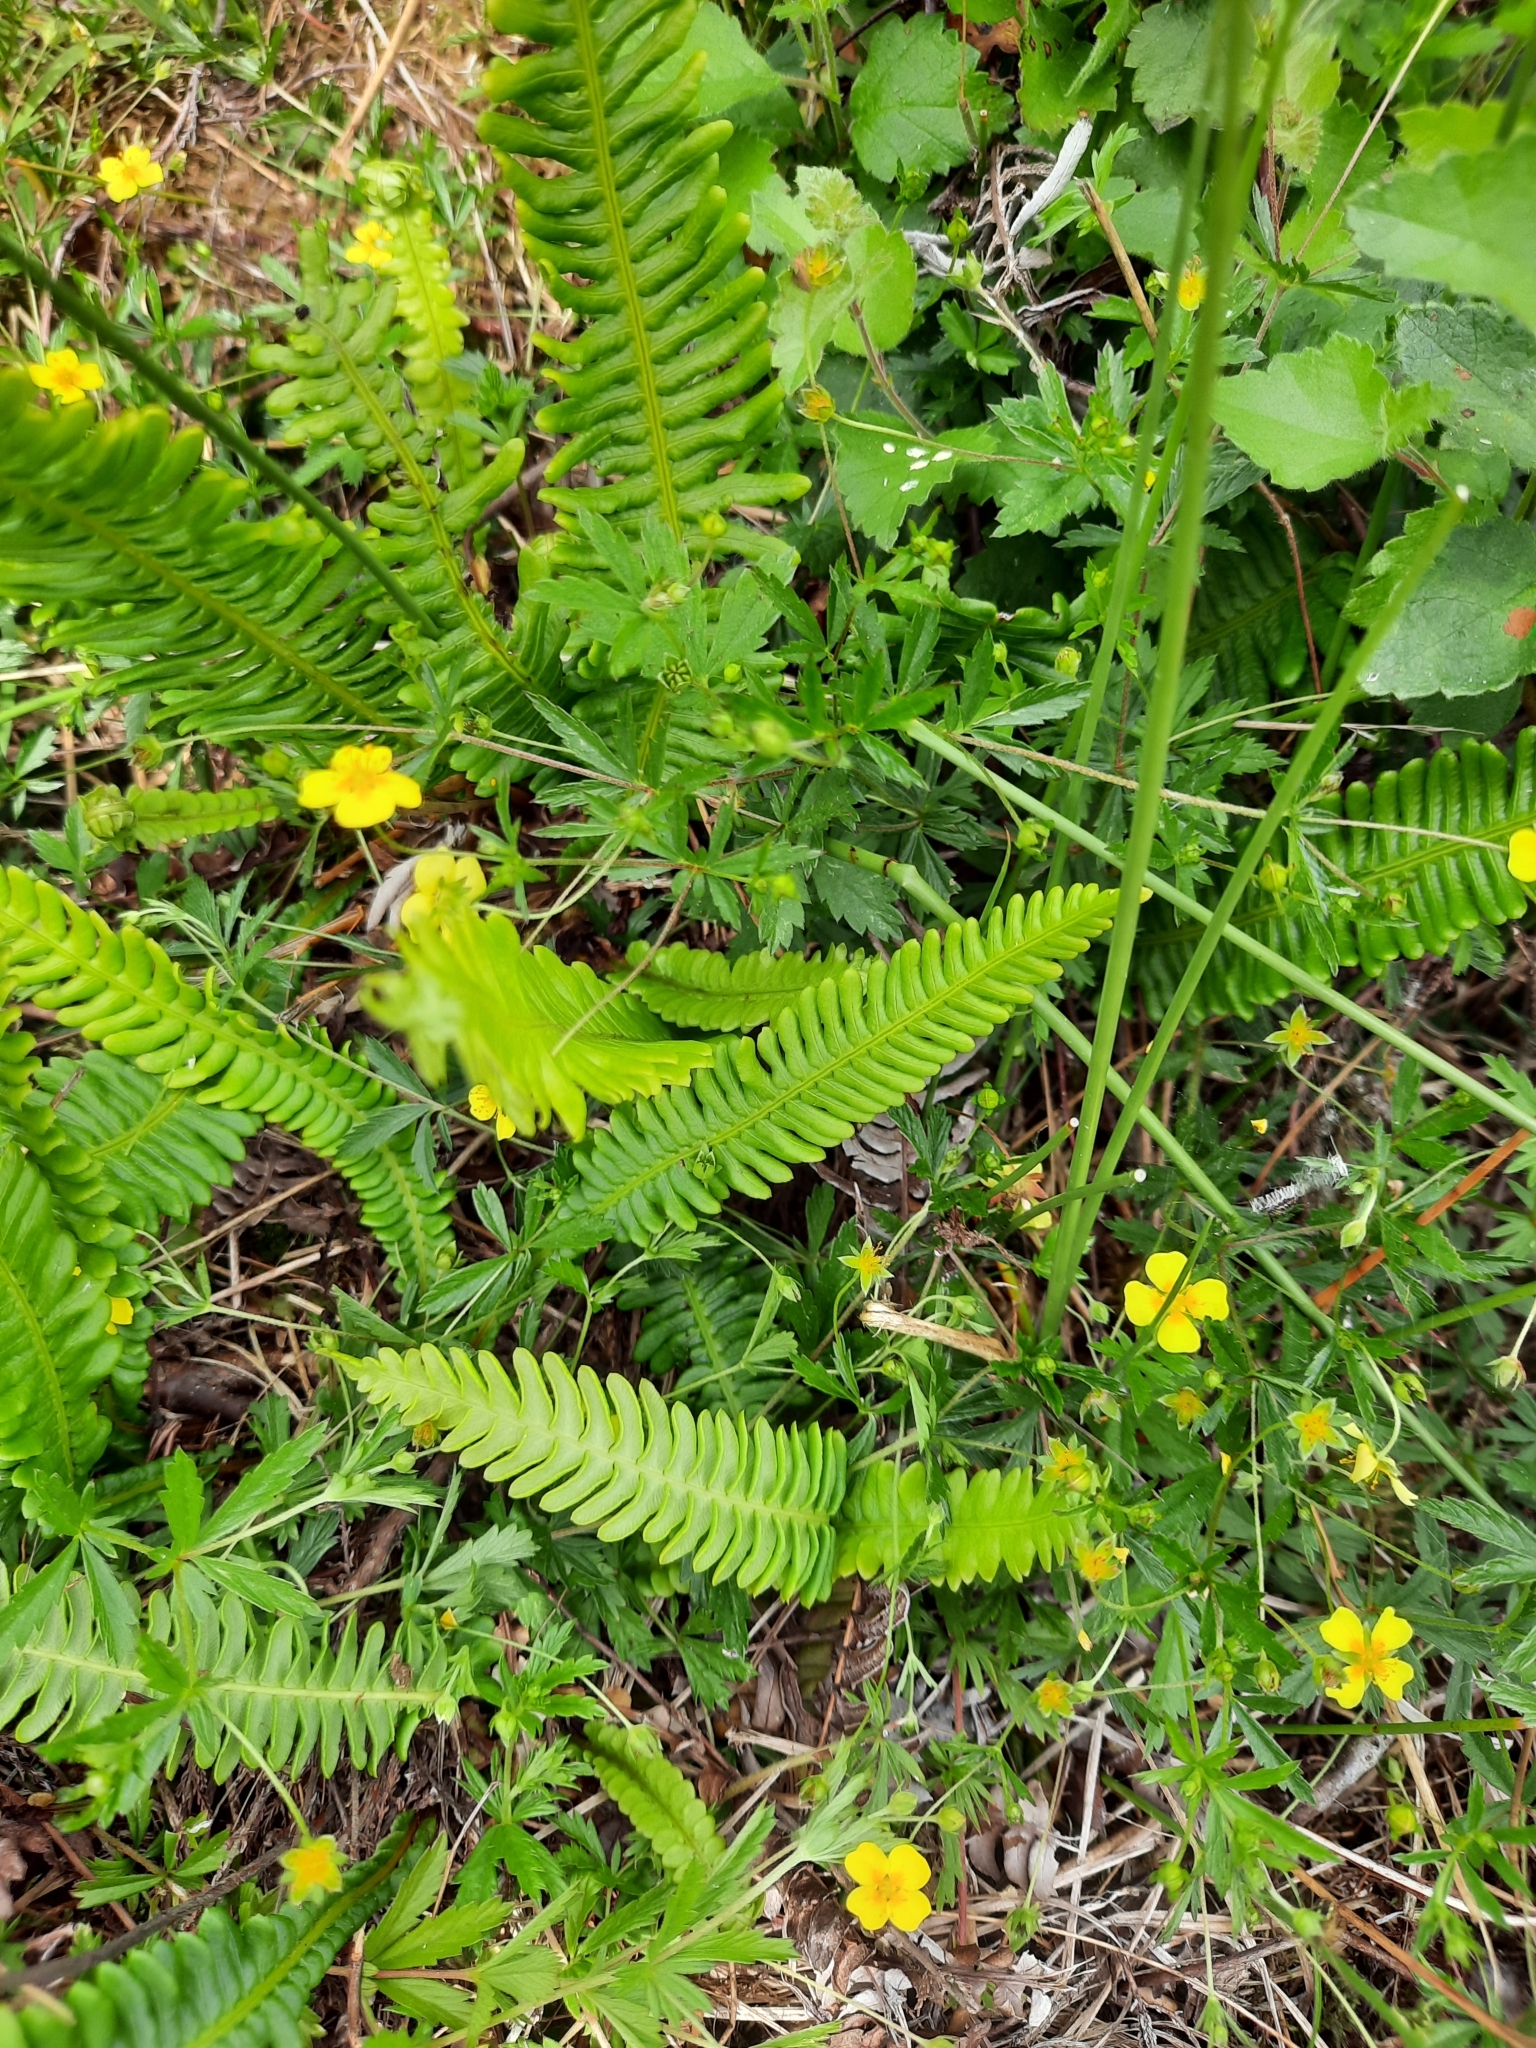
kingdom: Plantae
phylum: Tracheophyta
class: Polypodiopsida
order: Polypodiales
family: Blechnaceae
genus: Struthiopteris
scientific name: Struthiopteris spicant
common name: Deer fern
